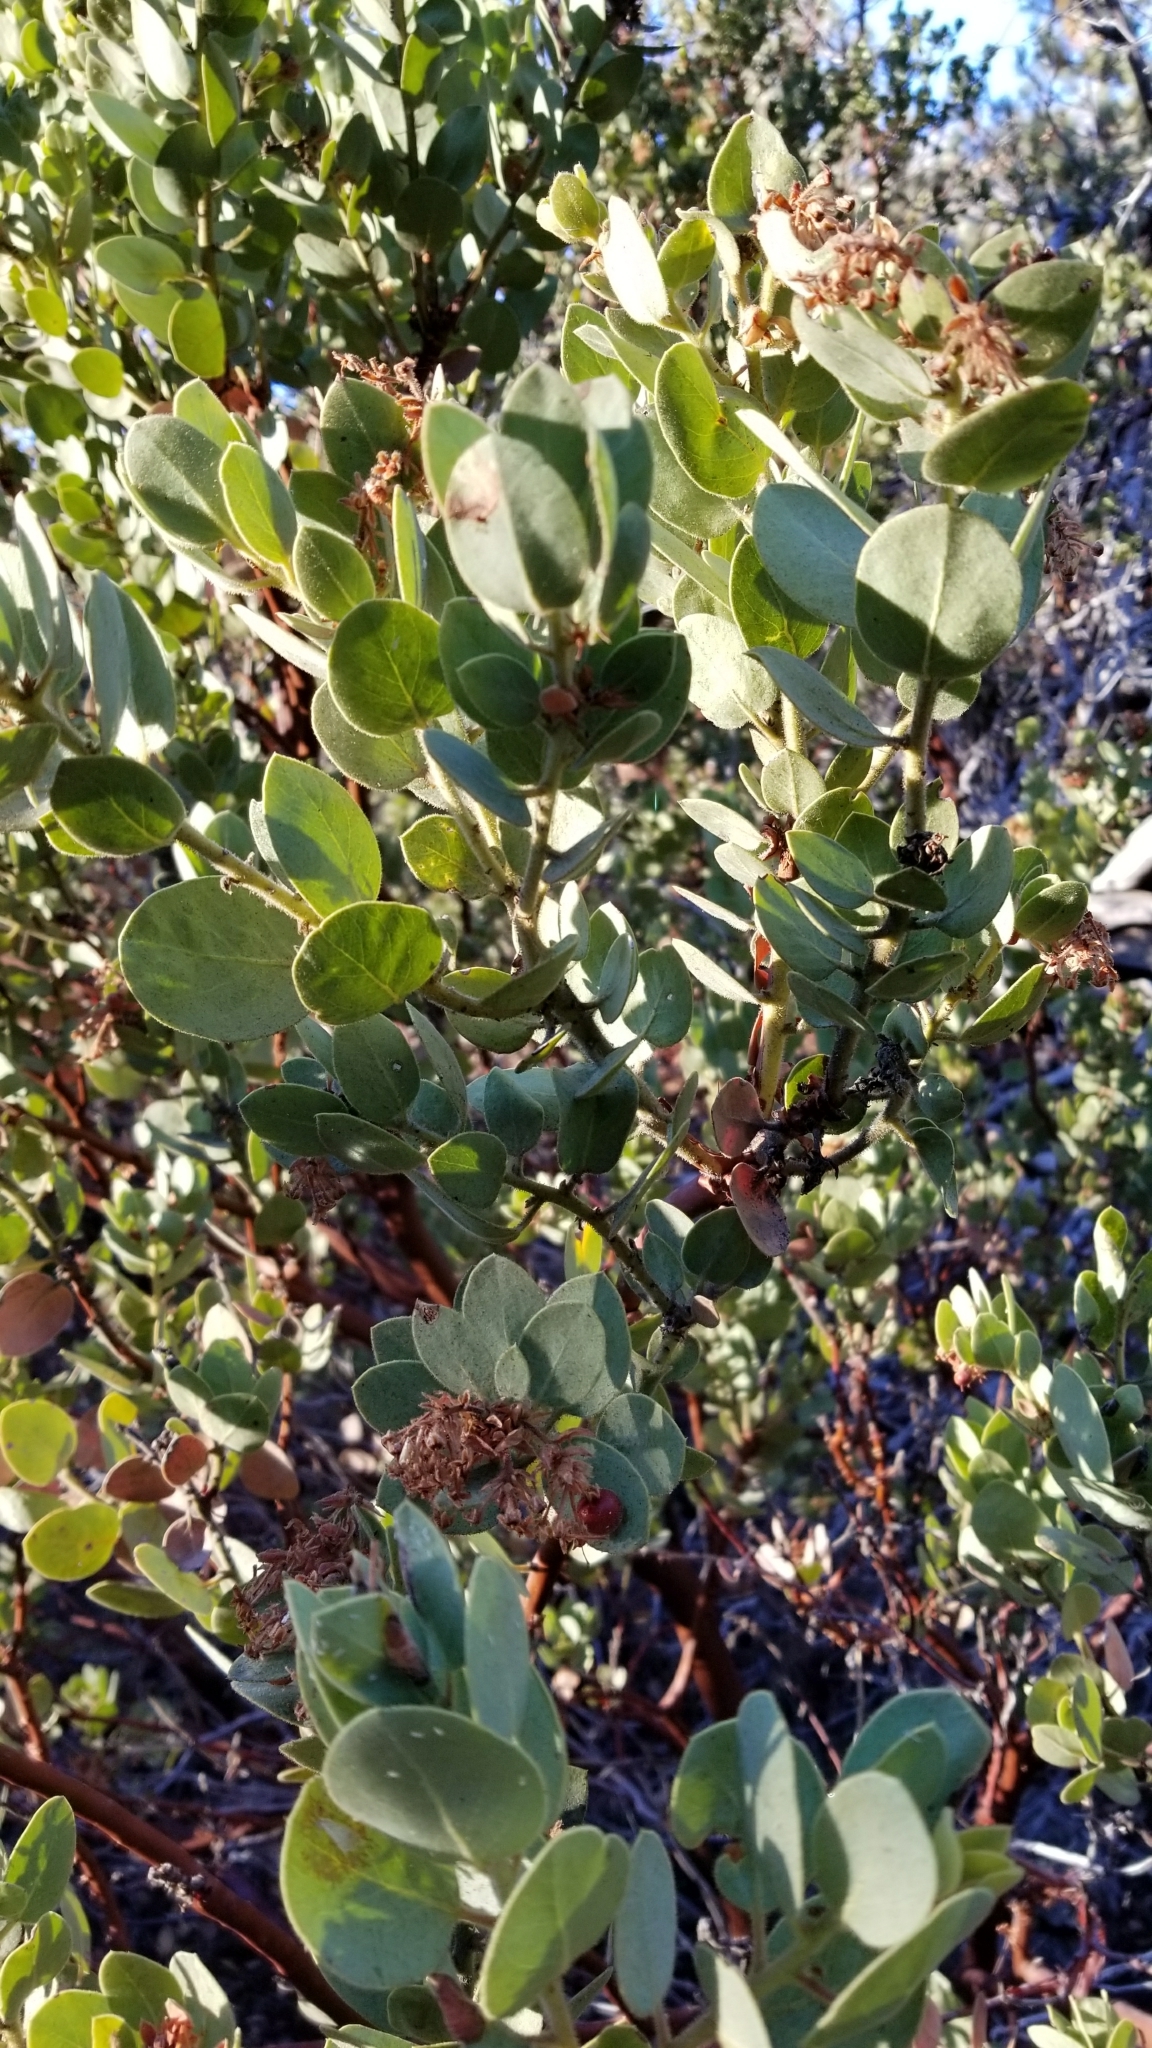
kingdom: Plantae
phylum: Tracheophyta
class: Magnoliopsida
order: Ericales
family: Ericaceae
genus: Arctostaphylos
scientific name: Arctostaphylos pringlei
